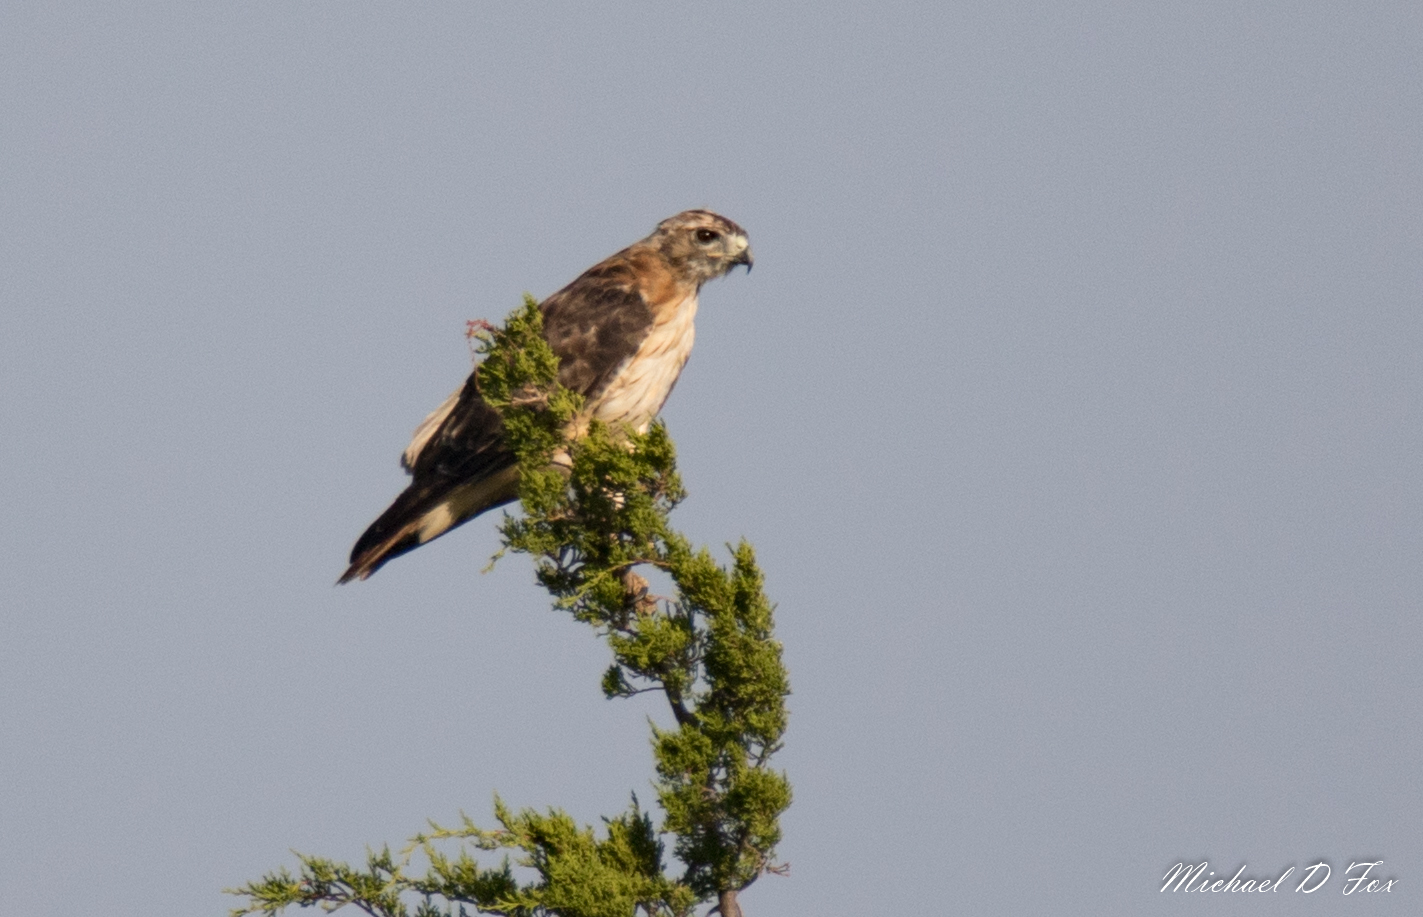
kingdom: Animalia
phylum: Chordata
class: Aves
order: Accipitriformes
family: Accipitridae
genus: Buteo
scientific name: Buteo jamaicensis
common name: Red-tailed hawk
